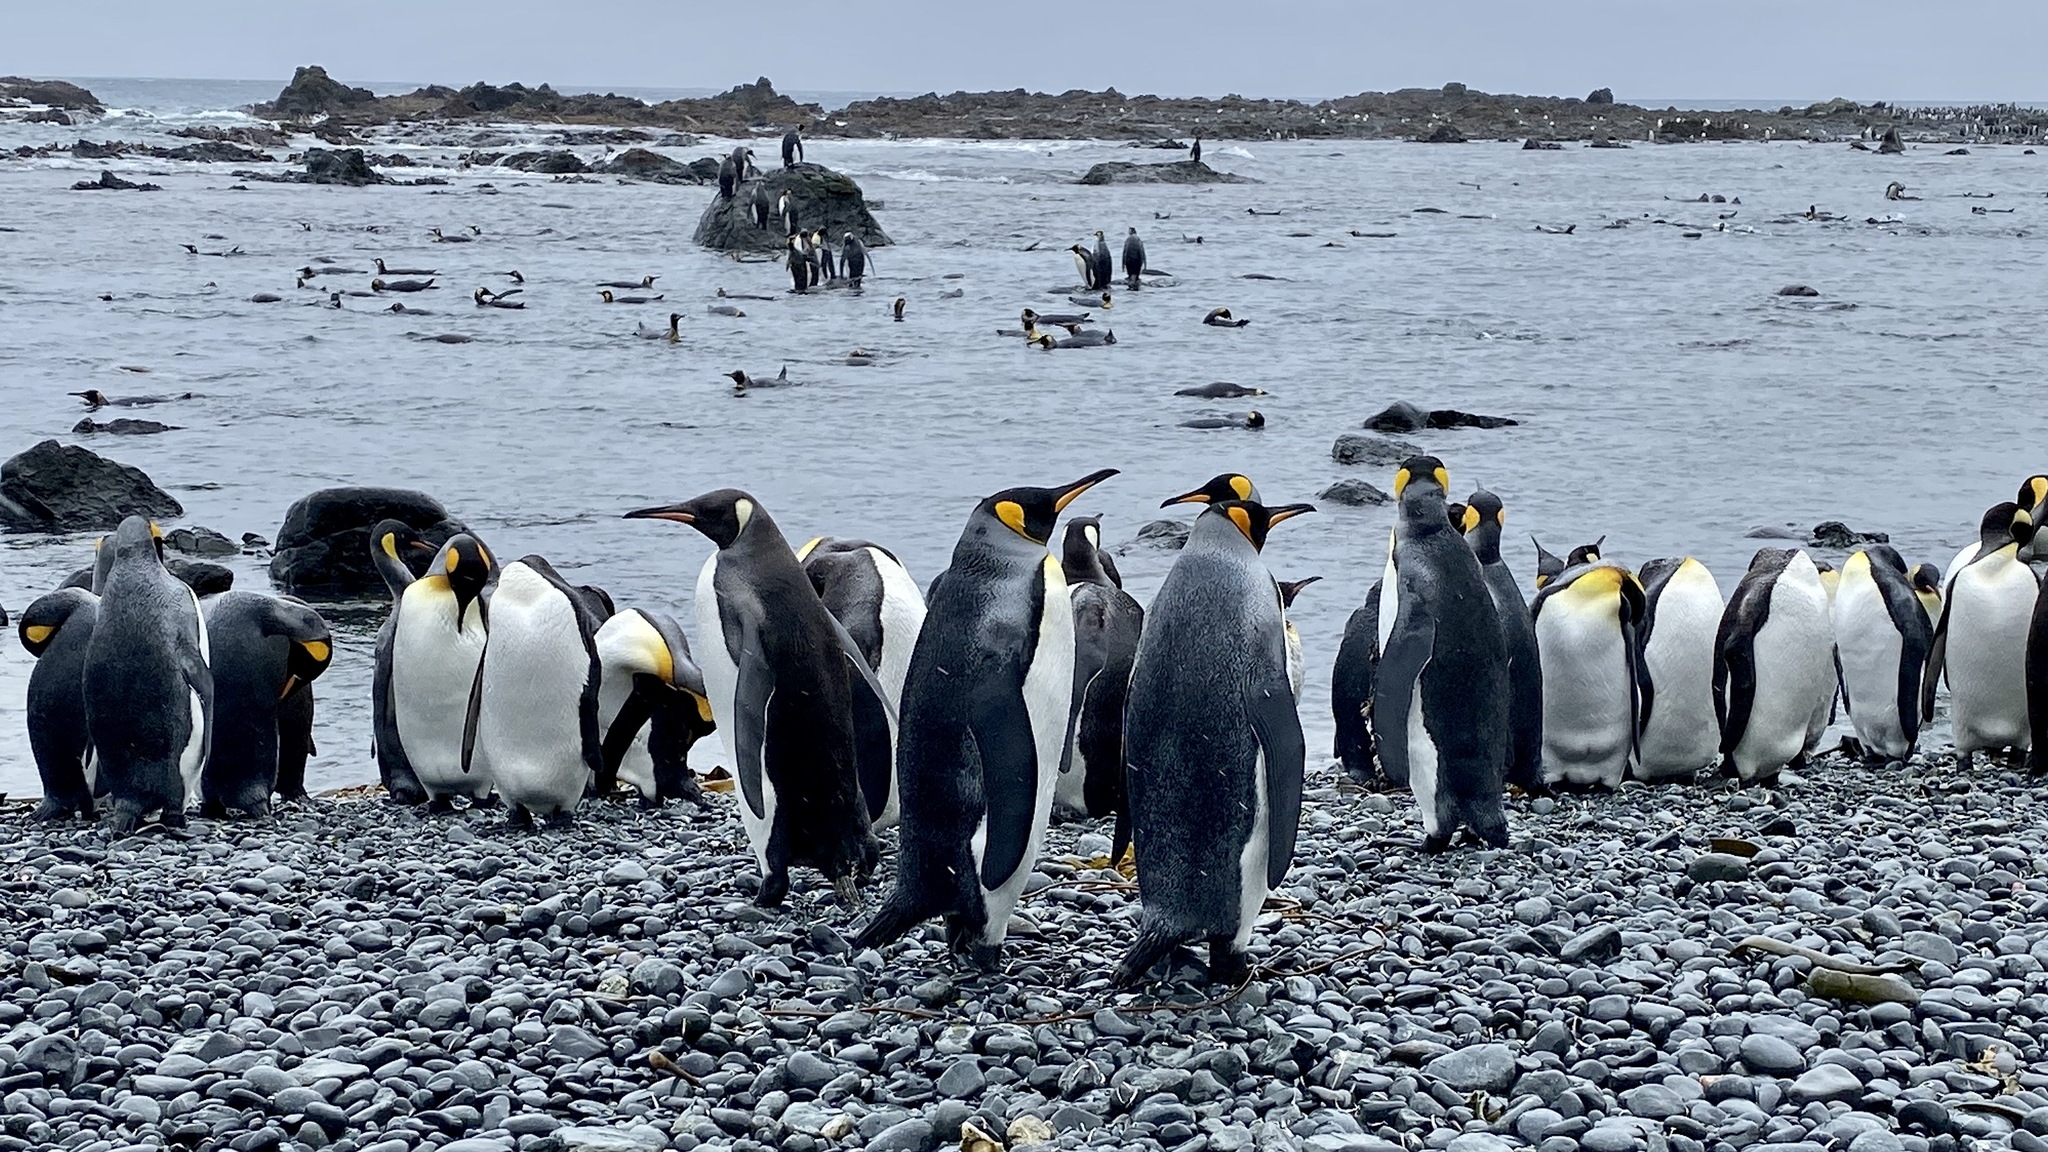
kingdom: Animalia
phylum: Chordata
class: Aves
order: Sphenisciformes
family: Spheniscidae
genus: Aptenodytes
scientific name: Aptenodytes patagonicus
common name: King penguin
